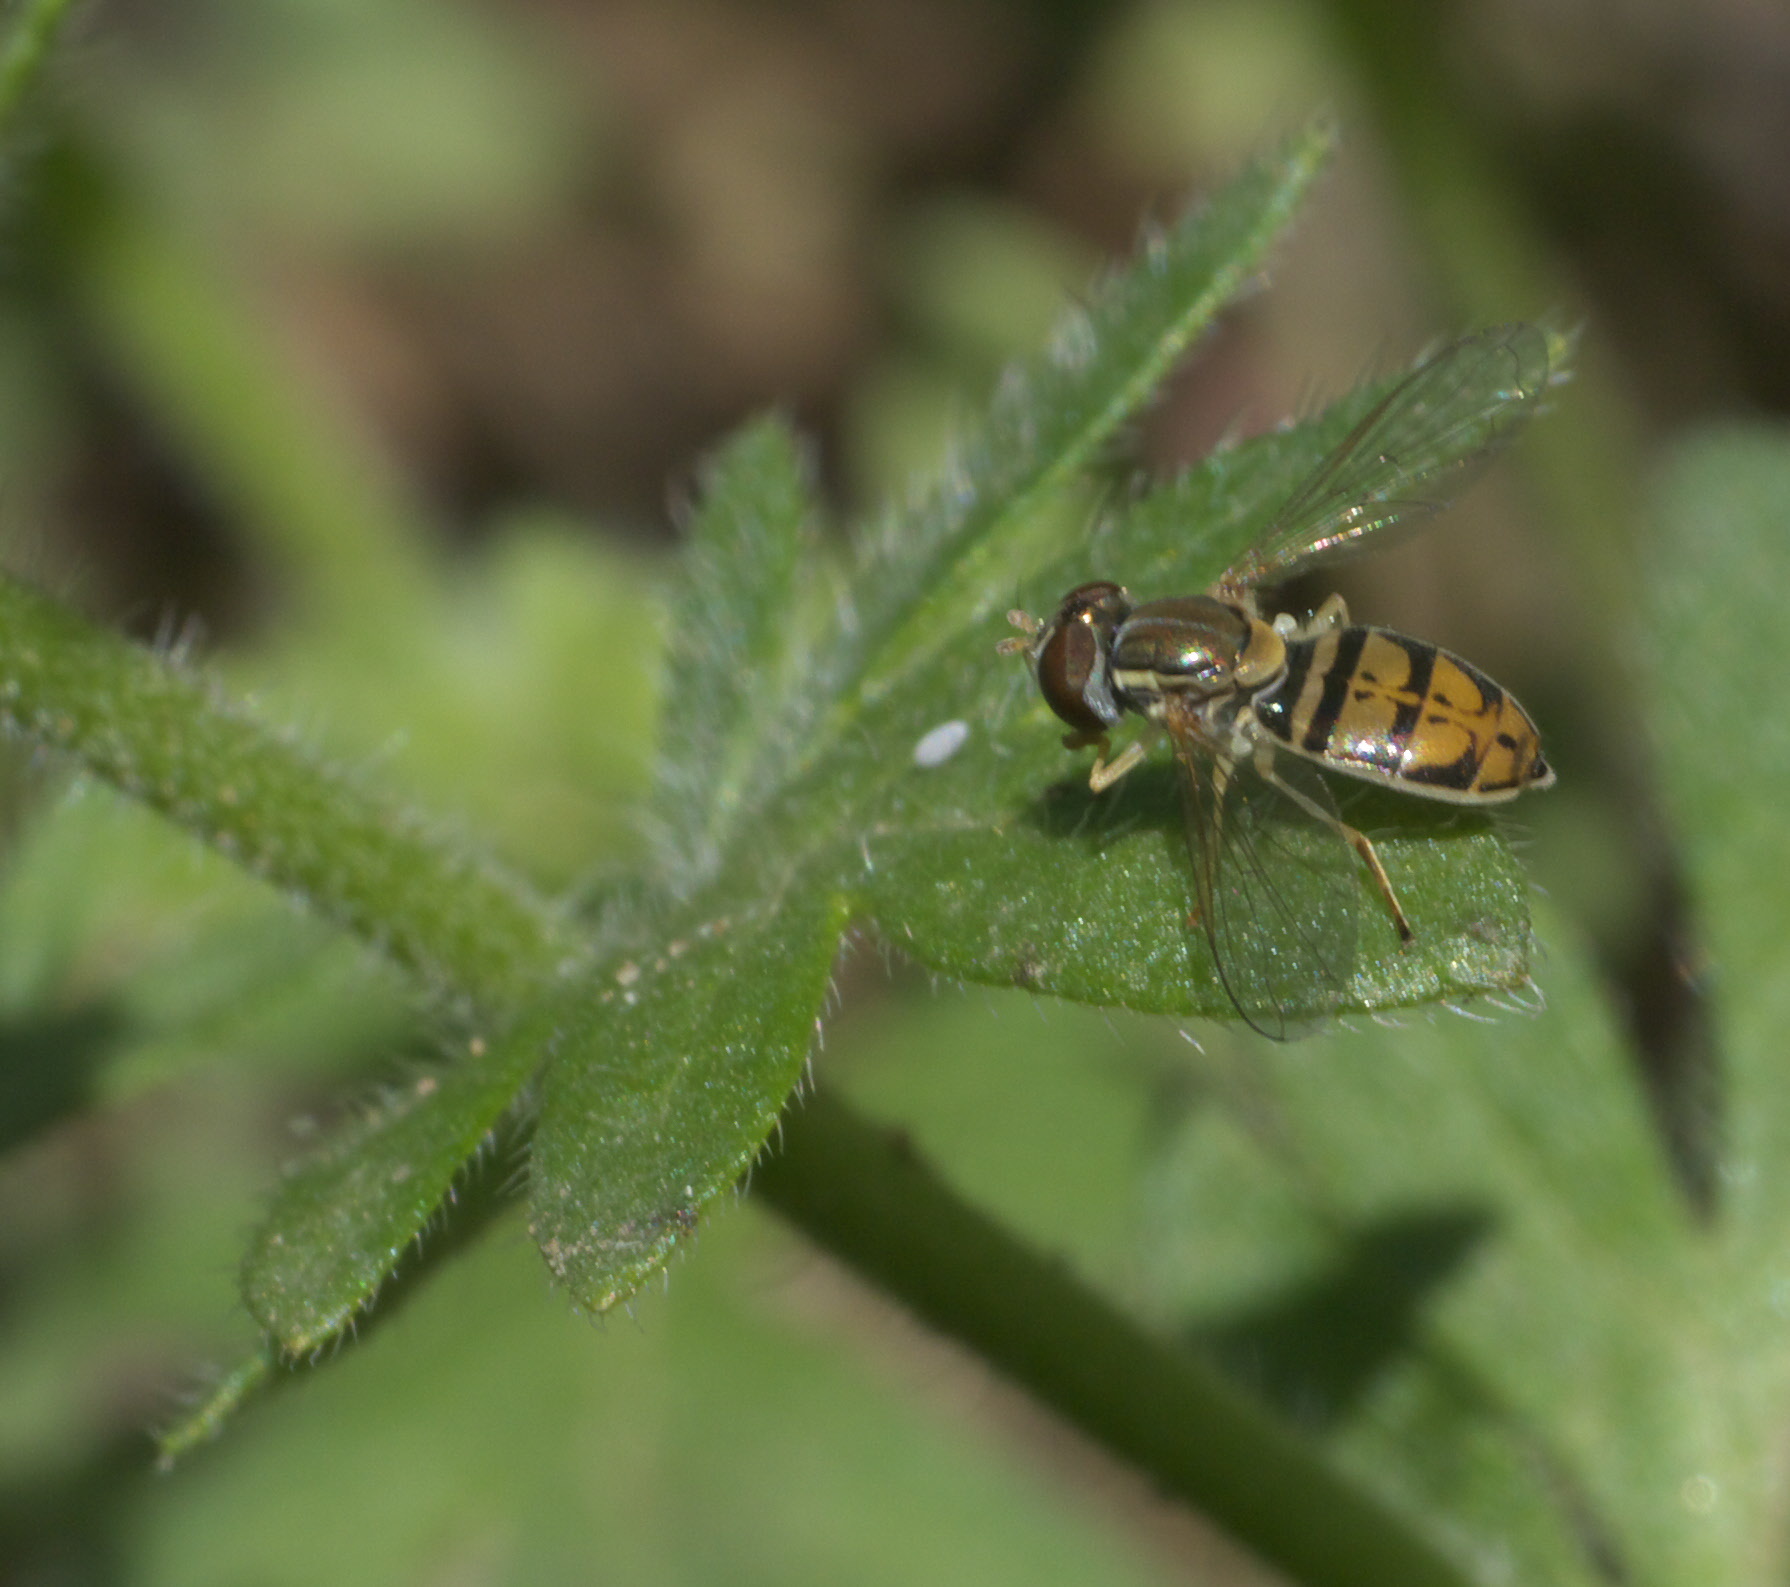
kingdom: Animalia
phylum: Arthropoda
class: Insecta
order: Diptera
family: Syrphidae
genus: Toxomerus
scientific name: Toxomerus marginatus
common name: Syrphid fly
